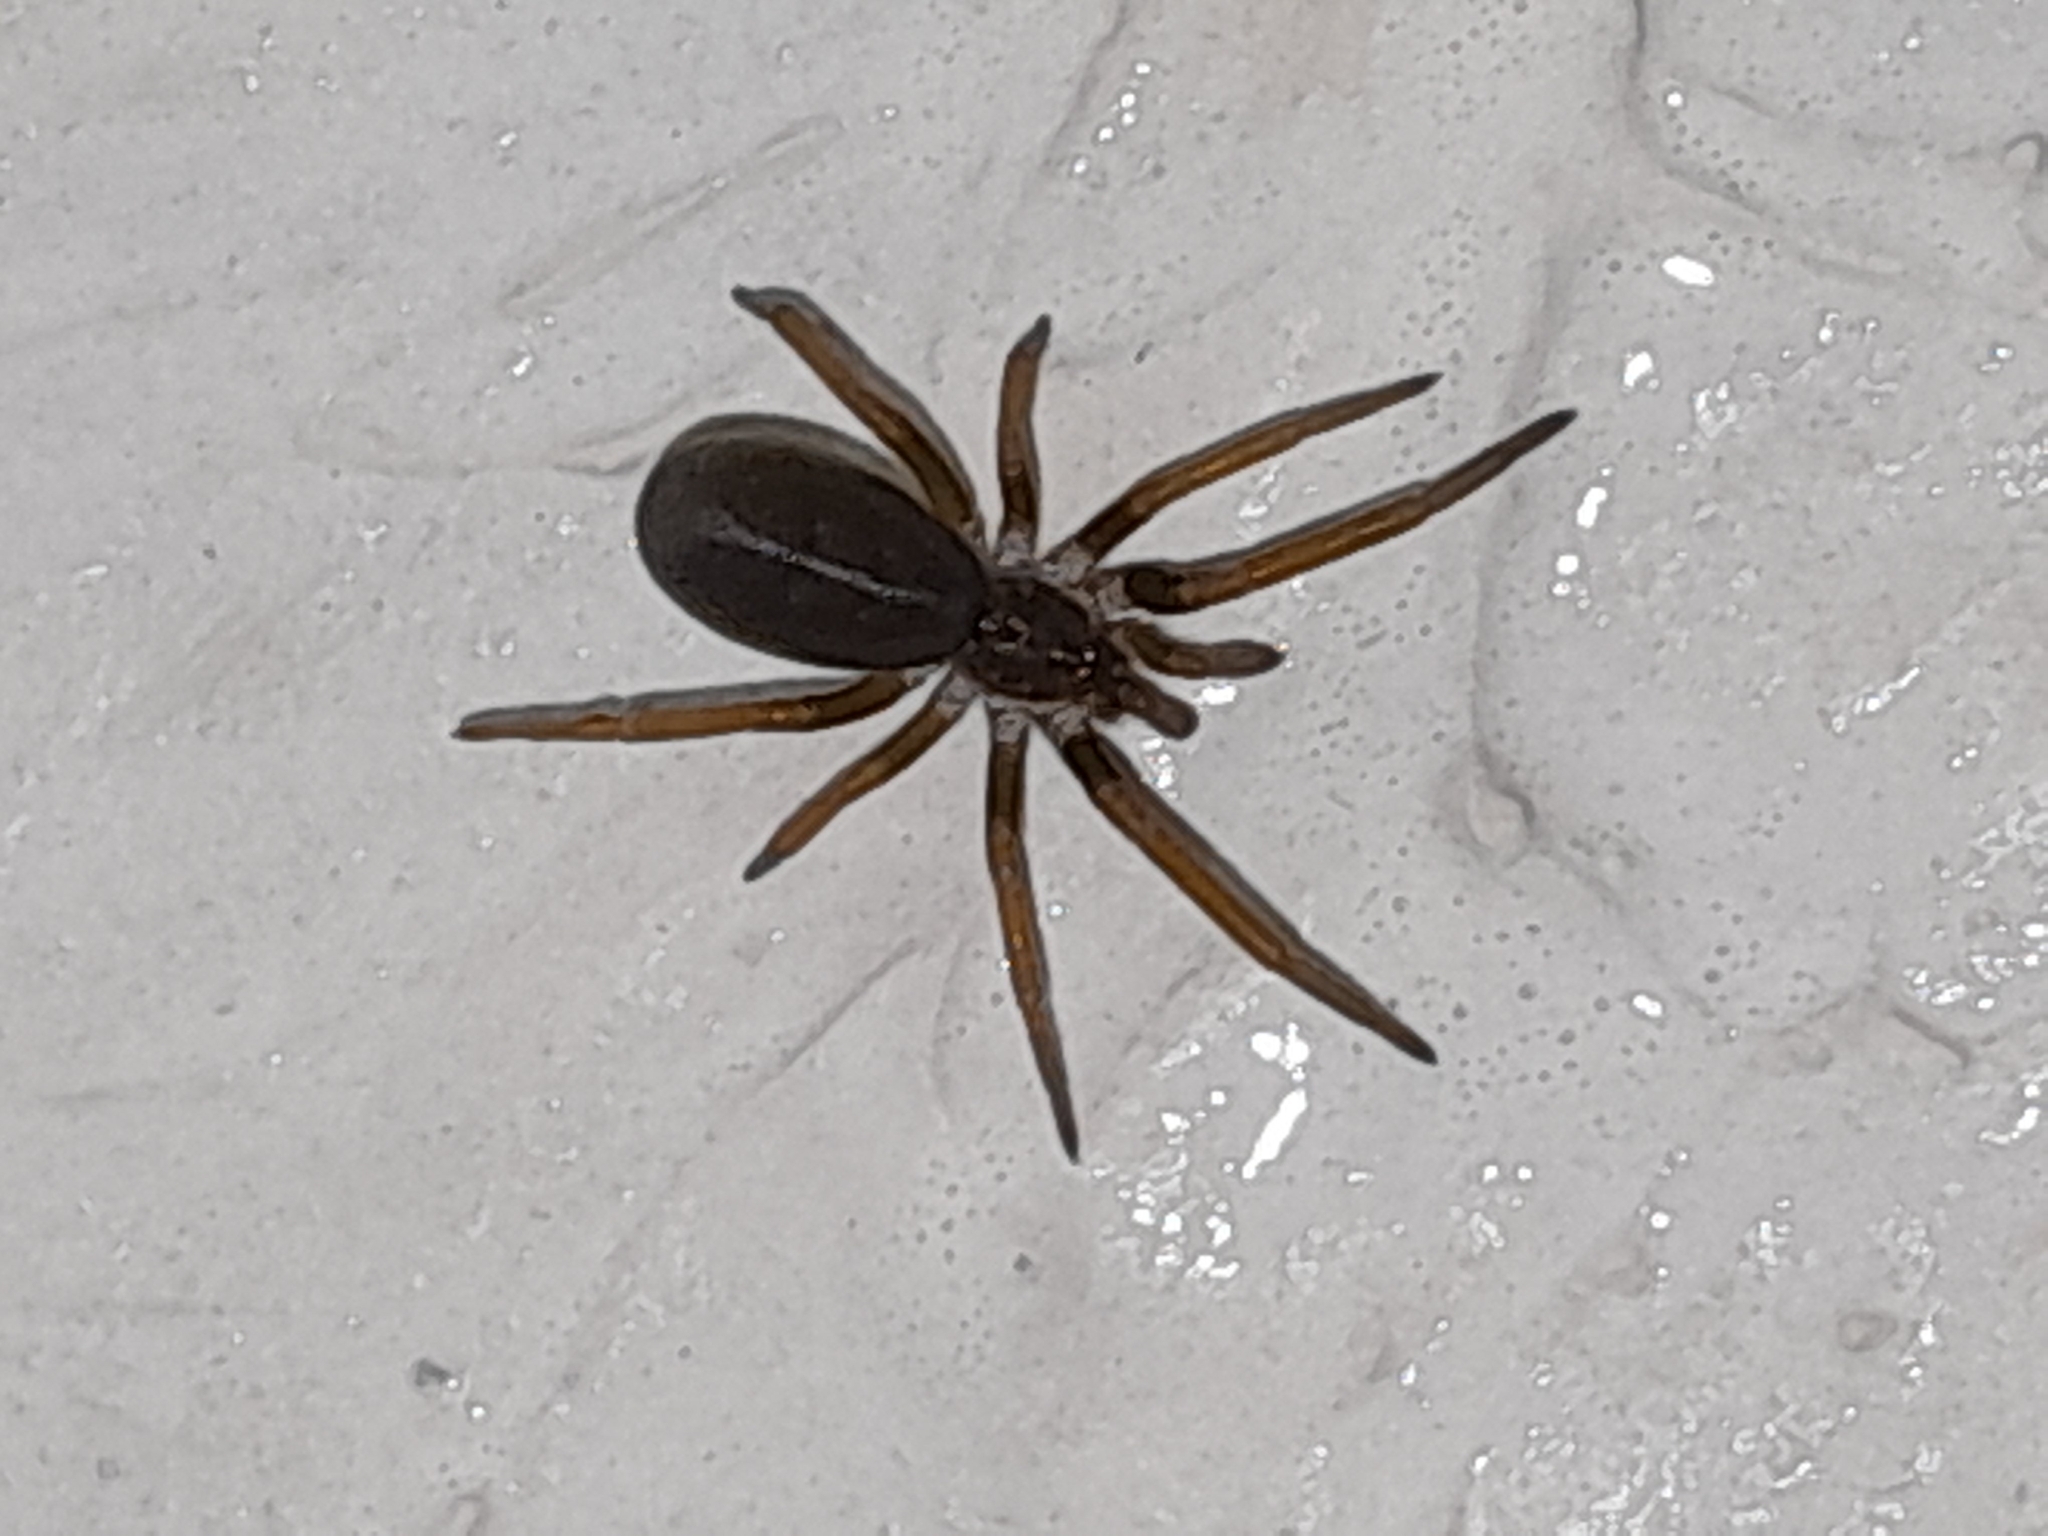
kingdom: Animalia
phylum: Arthropoda
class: Arachnida
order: Araneae
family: Filistatidae
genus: Kukulcania
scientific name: Kukulcania hibernalis
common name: Crevice weaver
